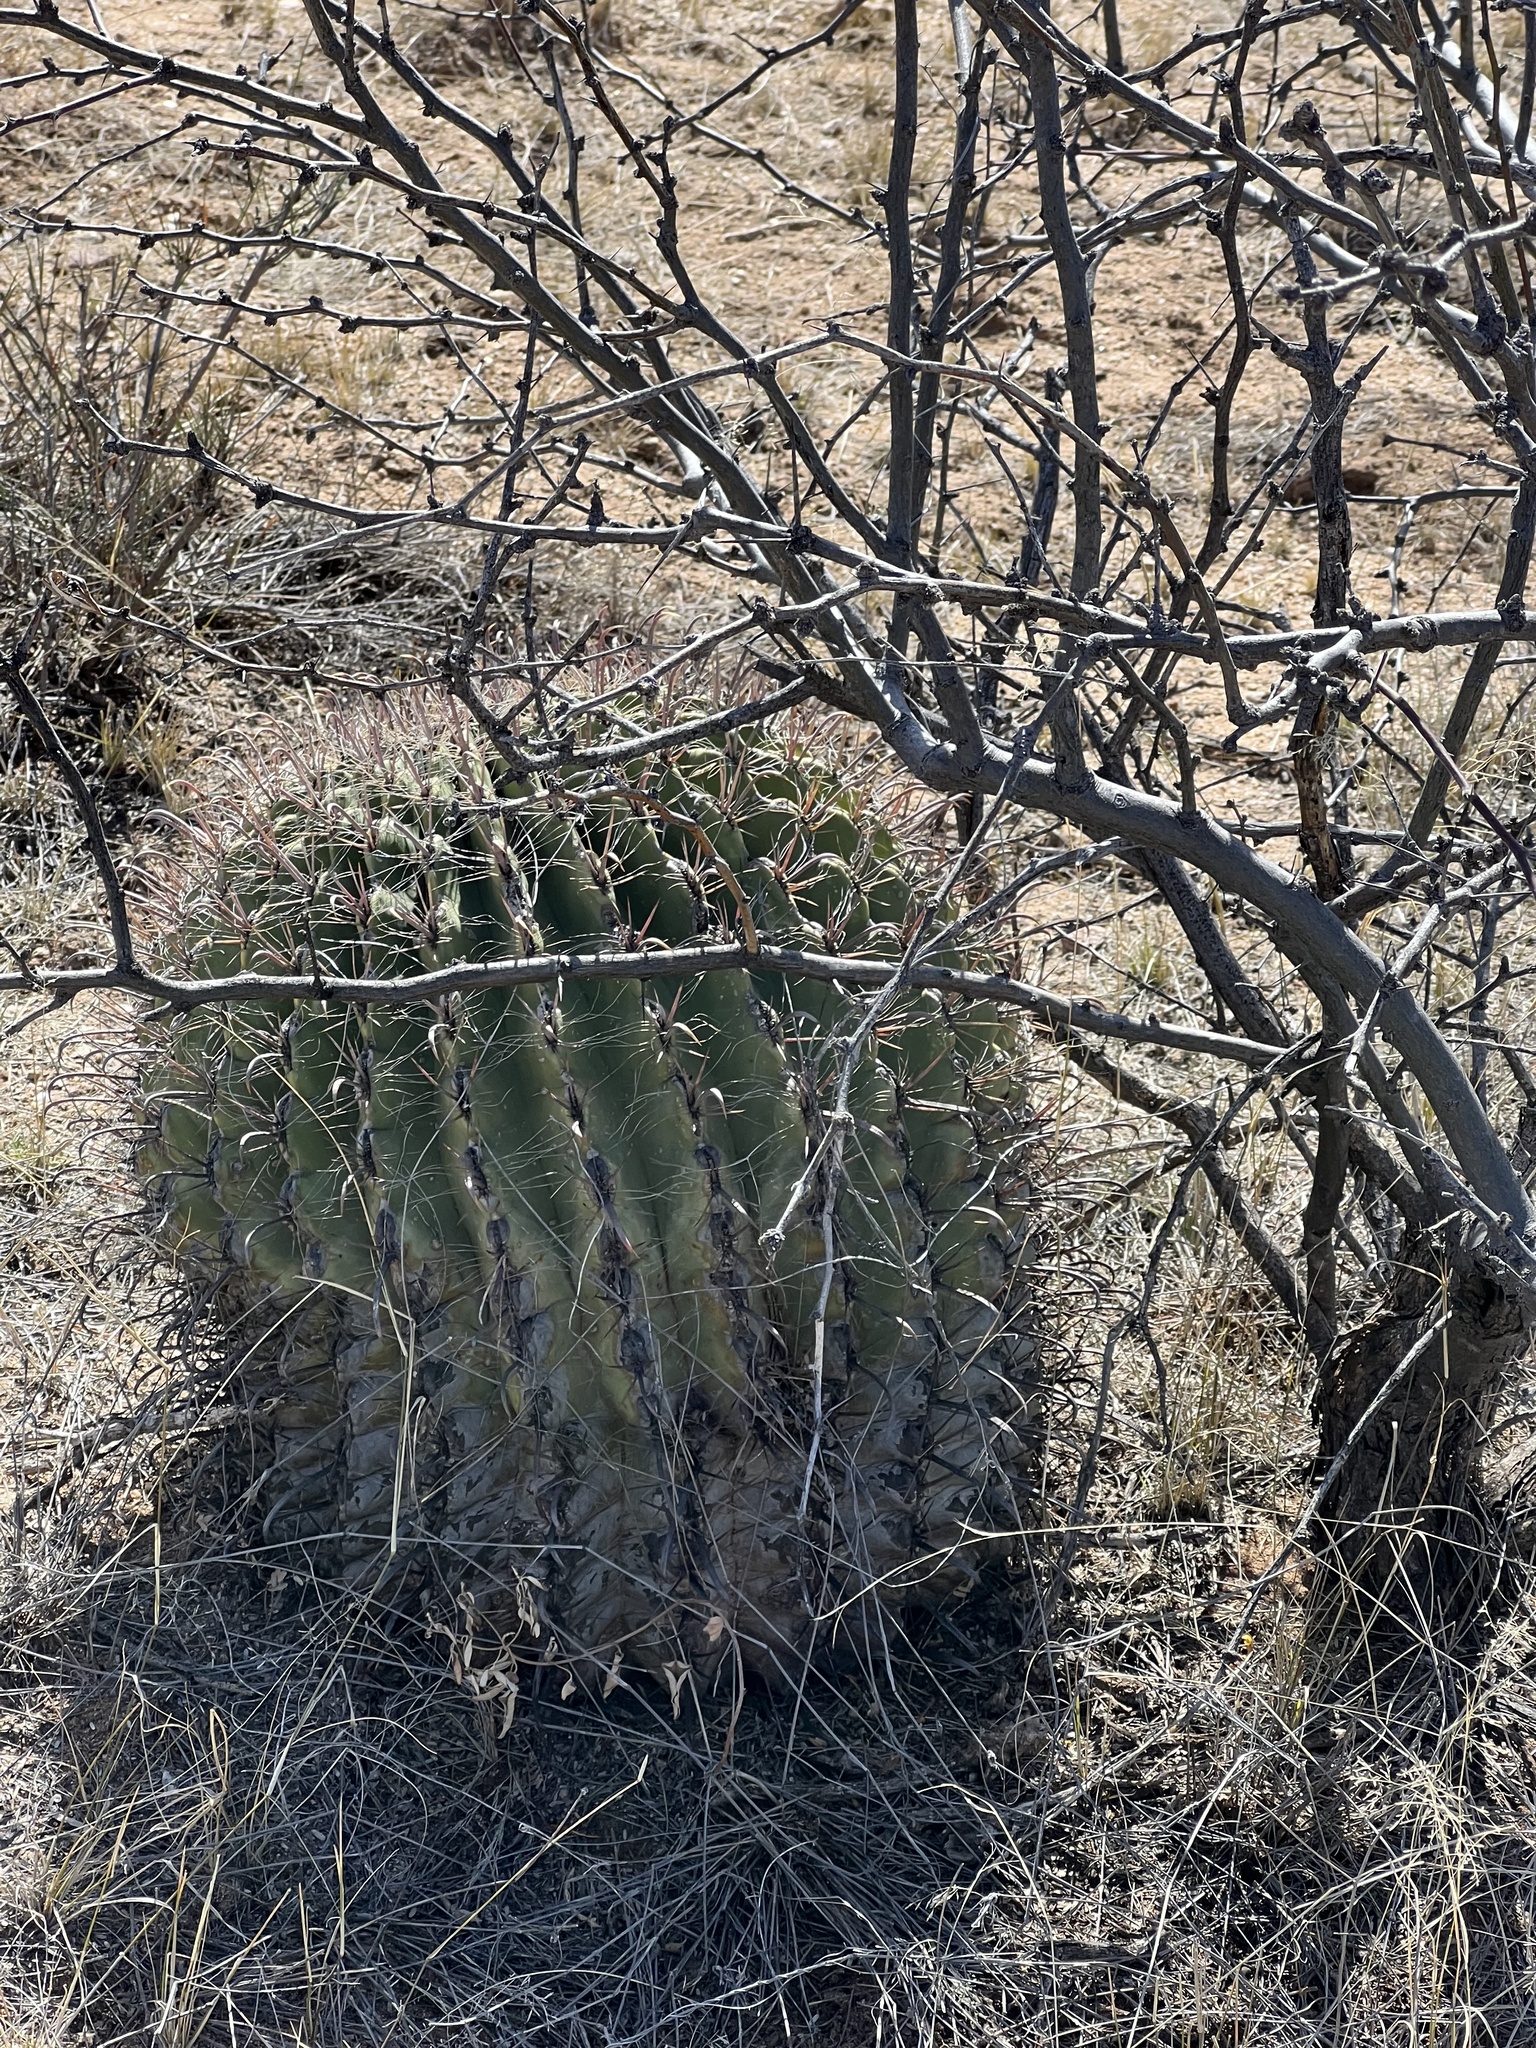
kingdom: Plantae
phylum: Tracheophyta
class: Magnoliopsida
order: Caryophyllales
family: Cactaceae
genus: Ferocactus
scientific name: Ferocactus wislizeni
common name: Candy barrel cactus
